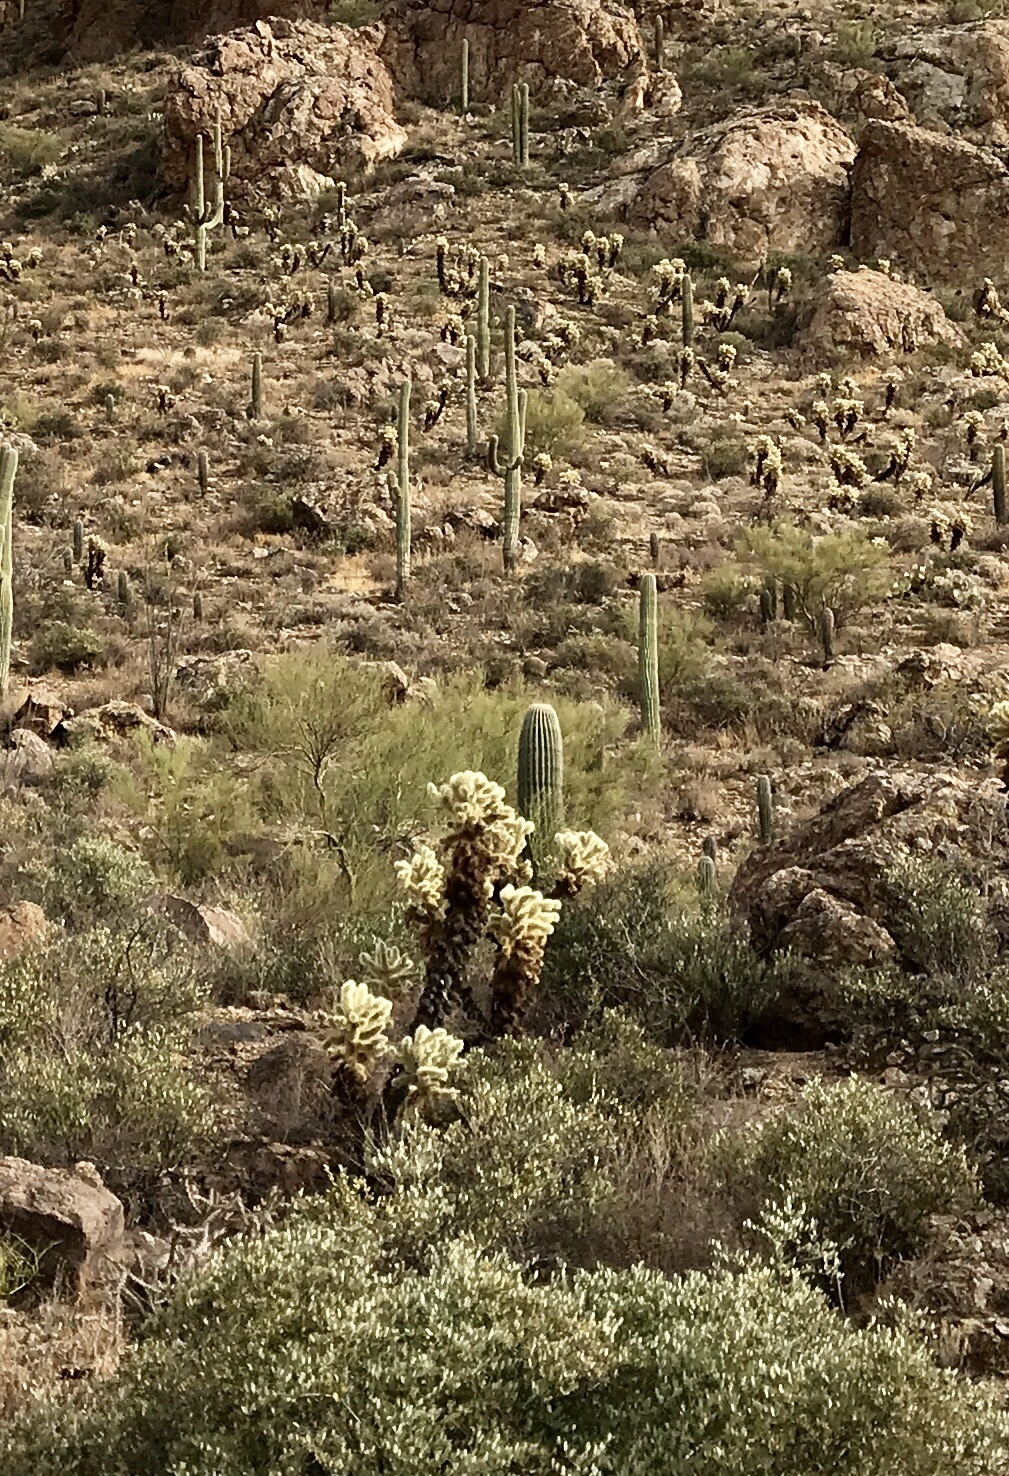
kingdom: Plantae
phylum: Tracheophyta
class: Magnoliopsida
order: Caryophyllales
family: Cactaceae
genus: Cylindropuntia
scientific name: Cylindropuntia fosbergii
